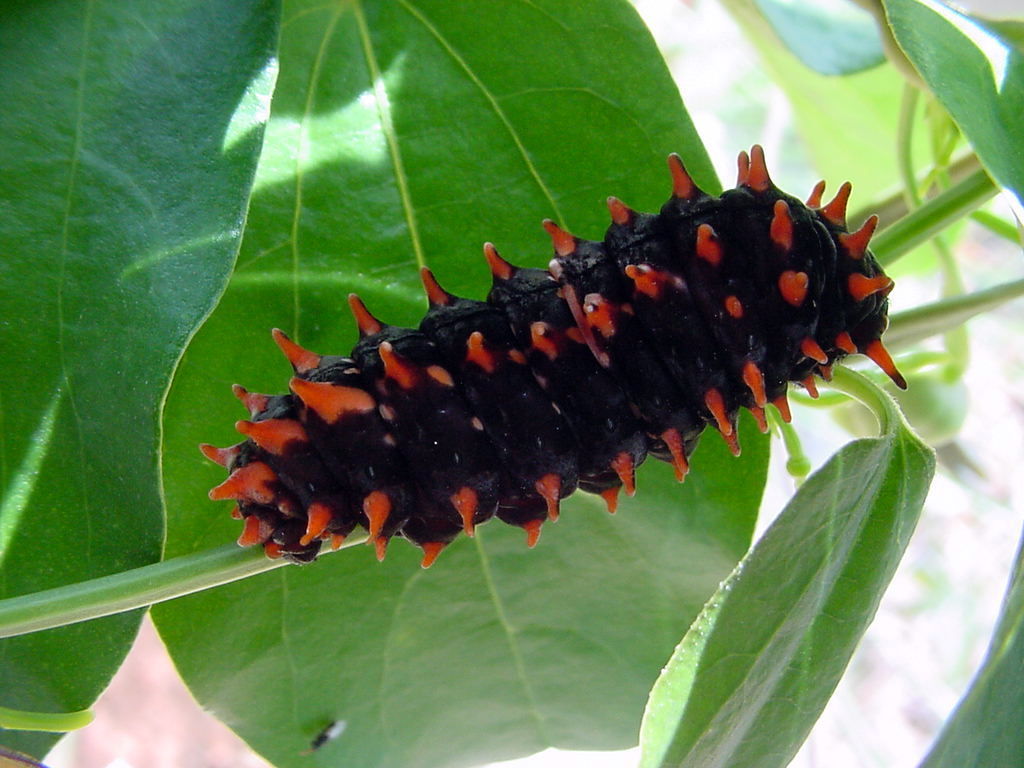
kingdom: Animalia
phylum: Arthropoda
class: Insecta
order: Lepidoptera
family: Papilionidae
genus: Pachliopta
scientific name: Pachliopta hector
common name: Crimson rose
